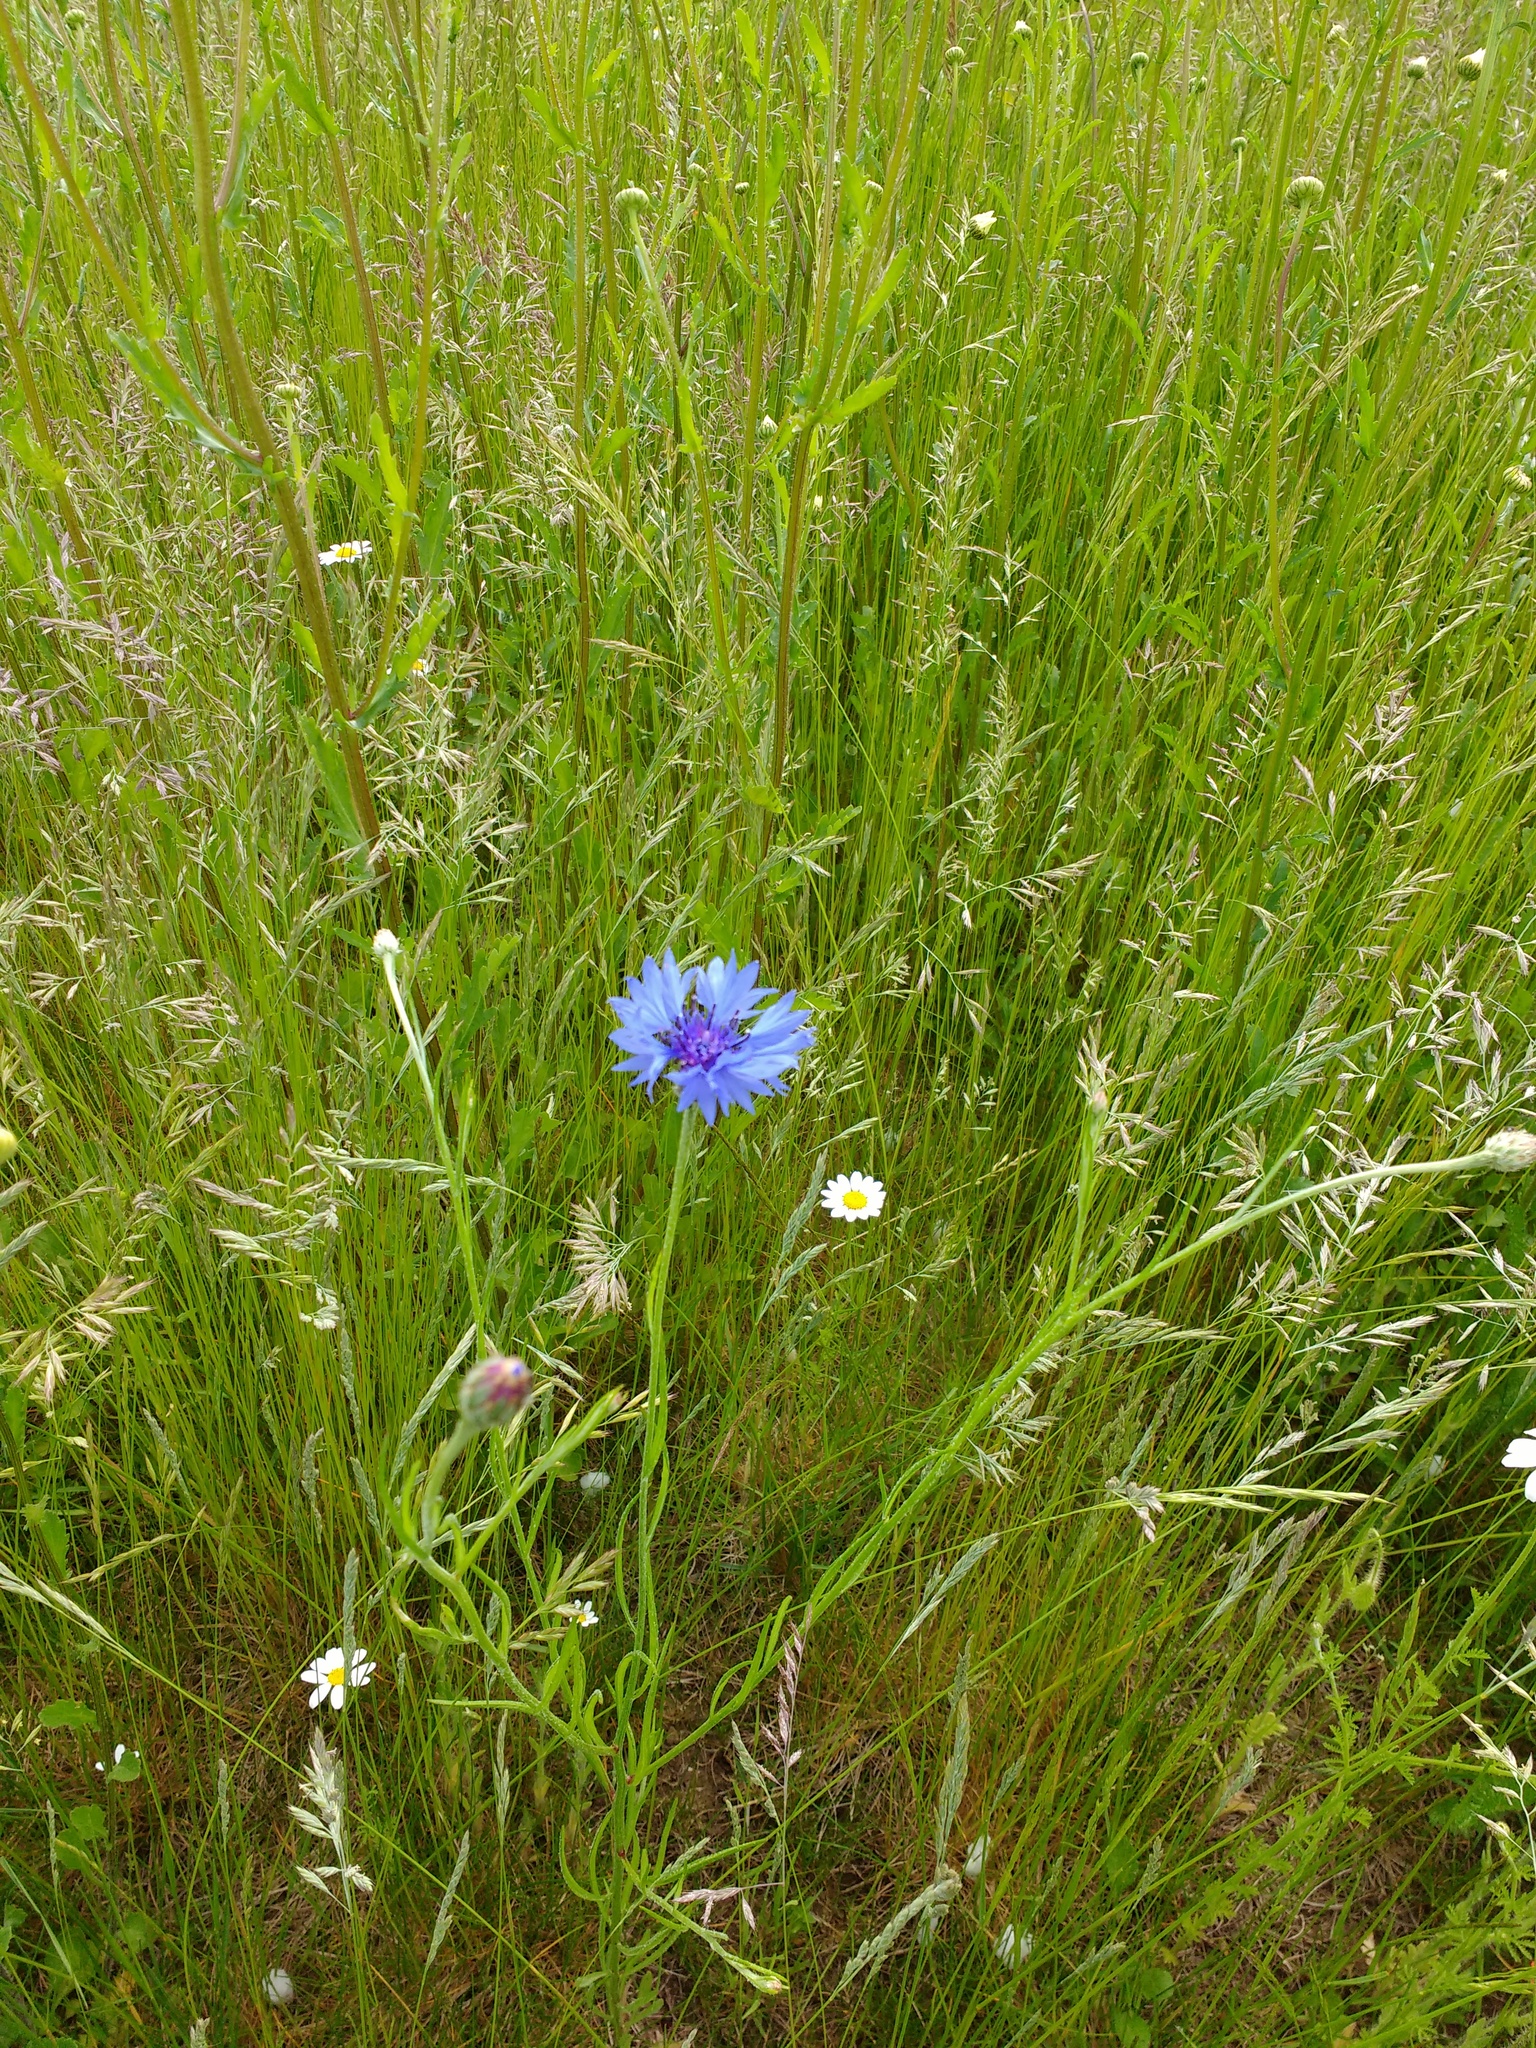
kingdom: Plantae
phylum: Tracheophyta
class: Magnoliopsida
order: Asterales
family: Asteraceae
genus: Centaurea
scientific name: Centaurea cyanus
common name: Cornflower
